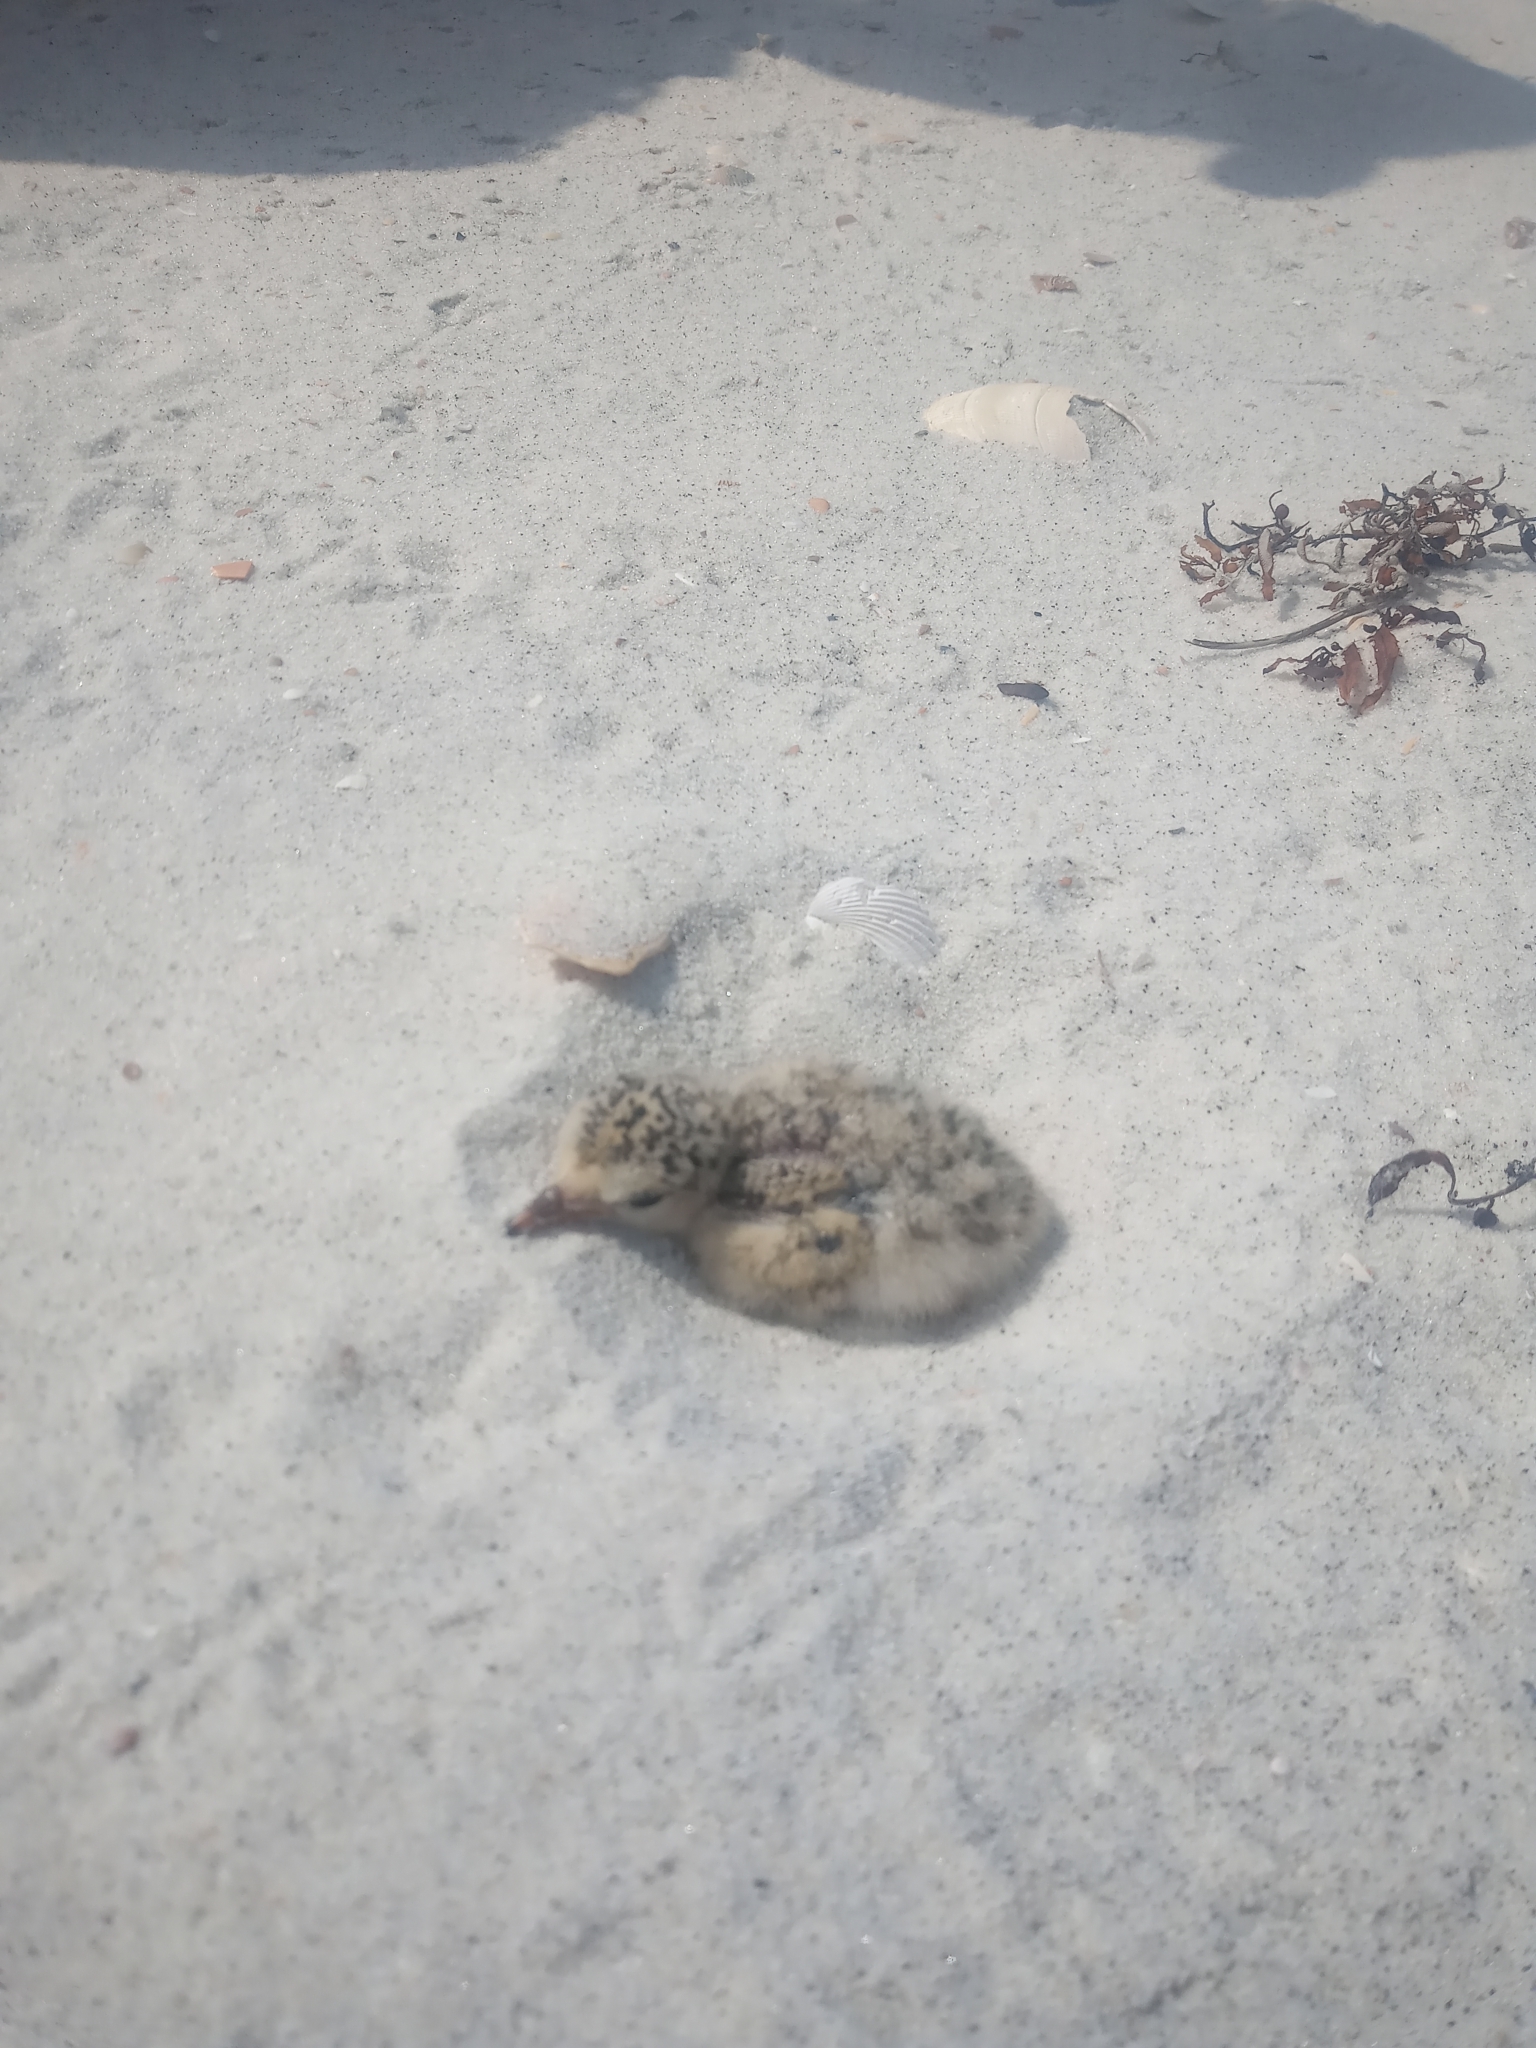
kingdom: Animalia
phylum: Chordata
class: Aves
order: Charadriiformes
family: Laridae
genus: Sternula
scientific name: Sternula antillarum
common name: Least tern
